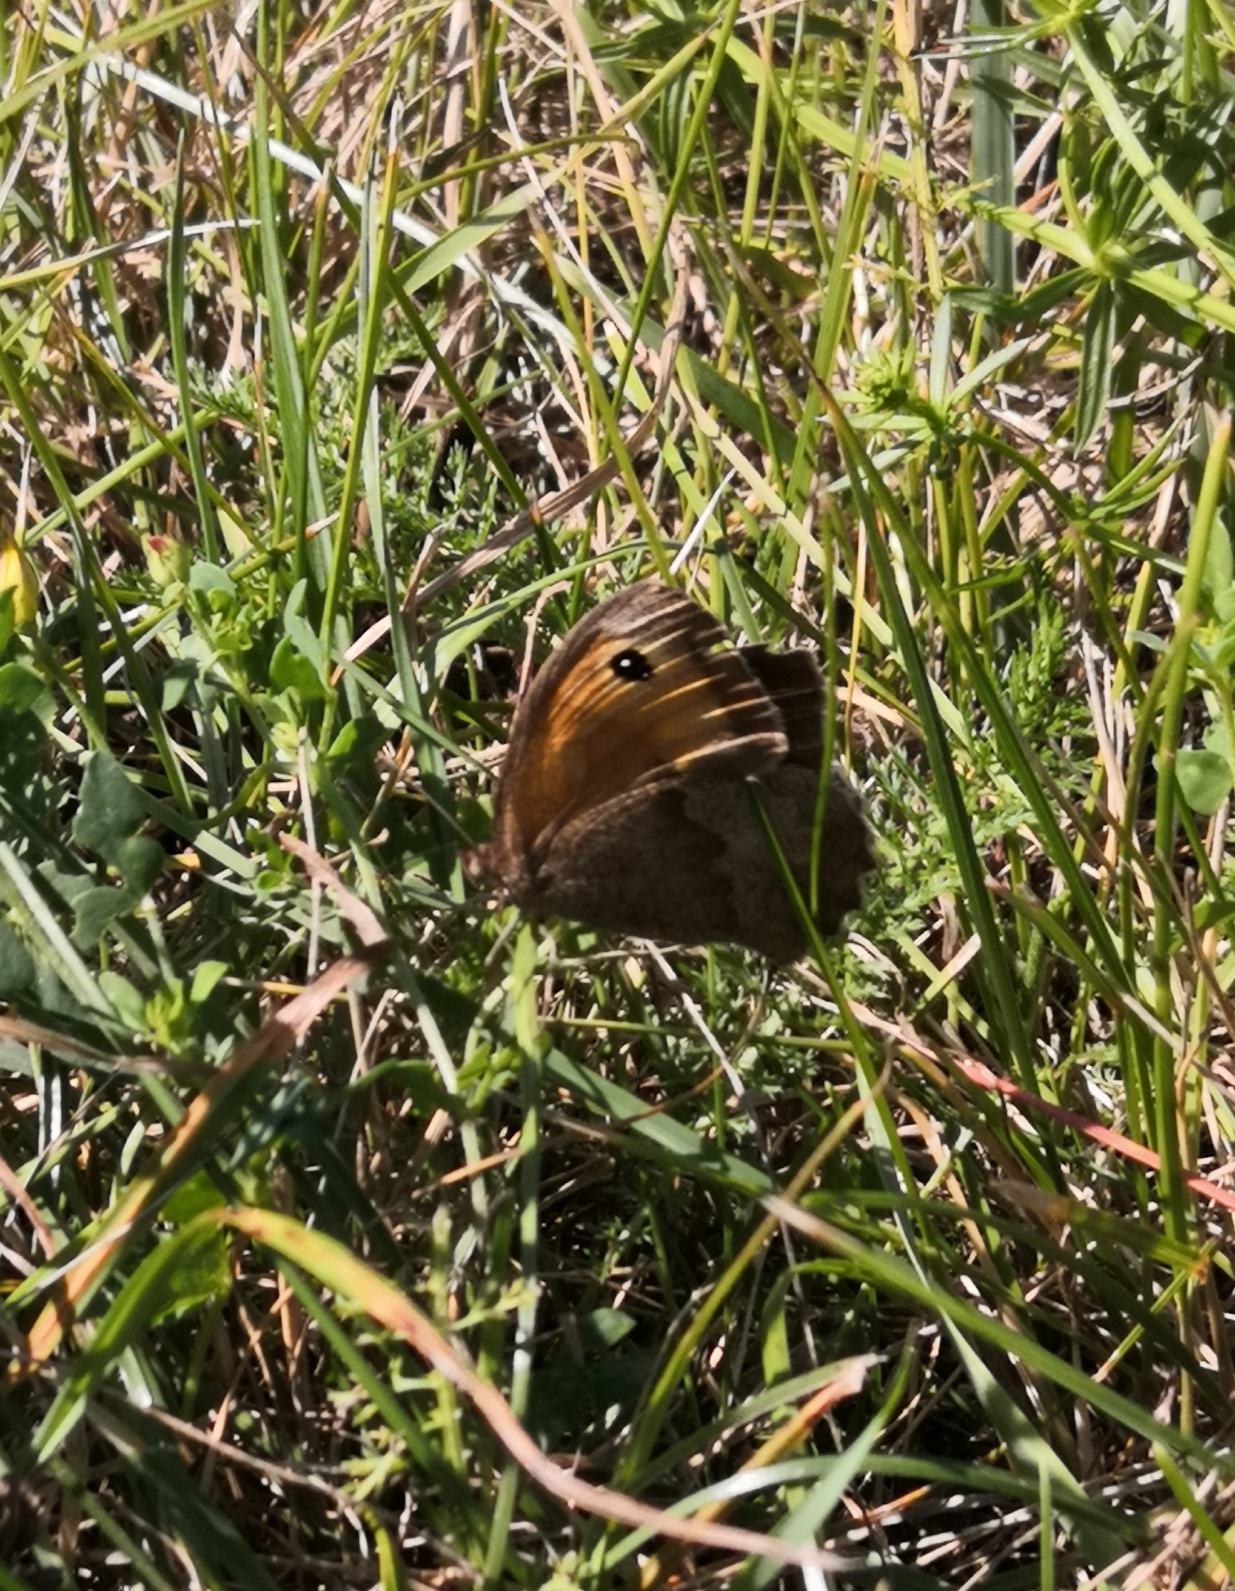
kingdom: Animalia
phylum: Arthropoda
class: Insecta
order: Lepidoptera
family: Nymphalidae
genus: Maniola
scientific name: Maniola jurtina
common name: Meadow brown
